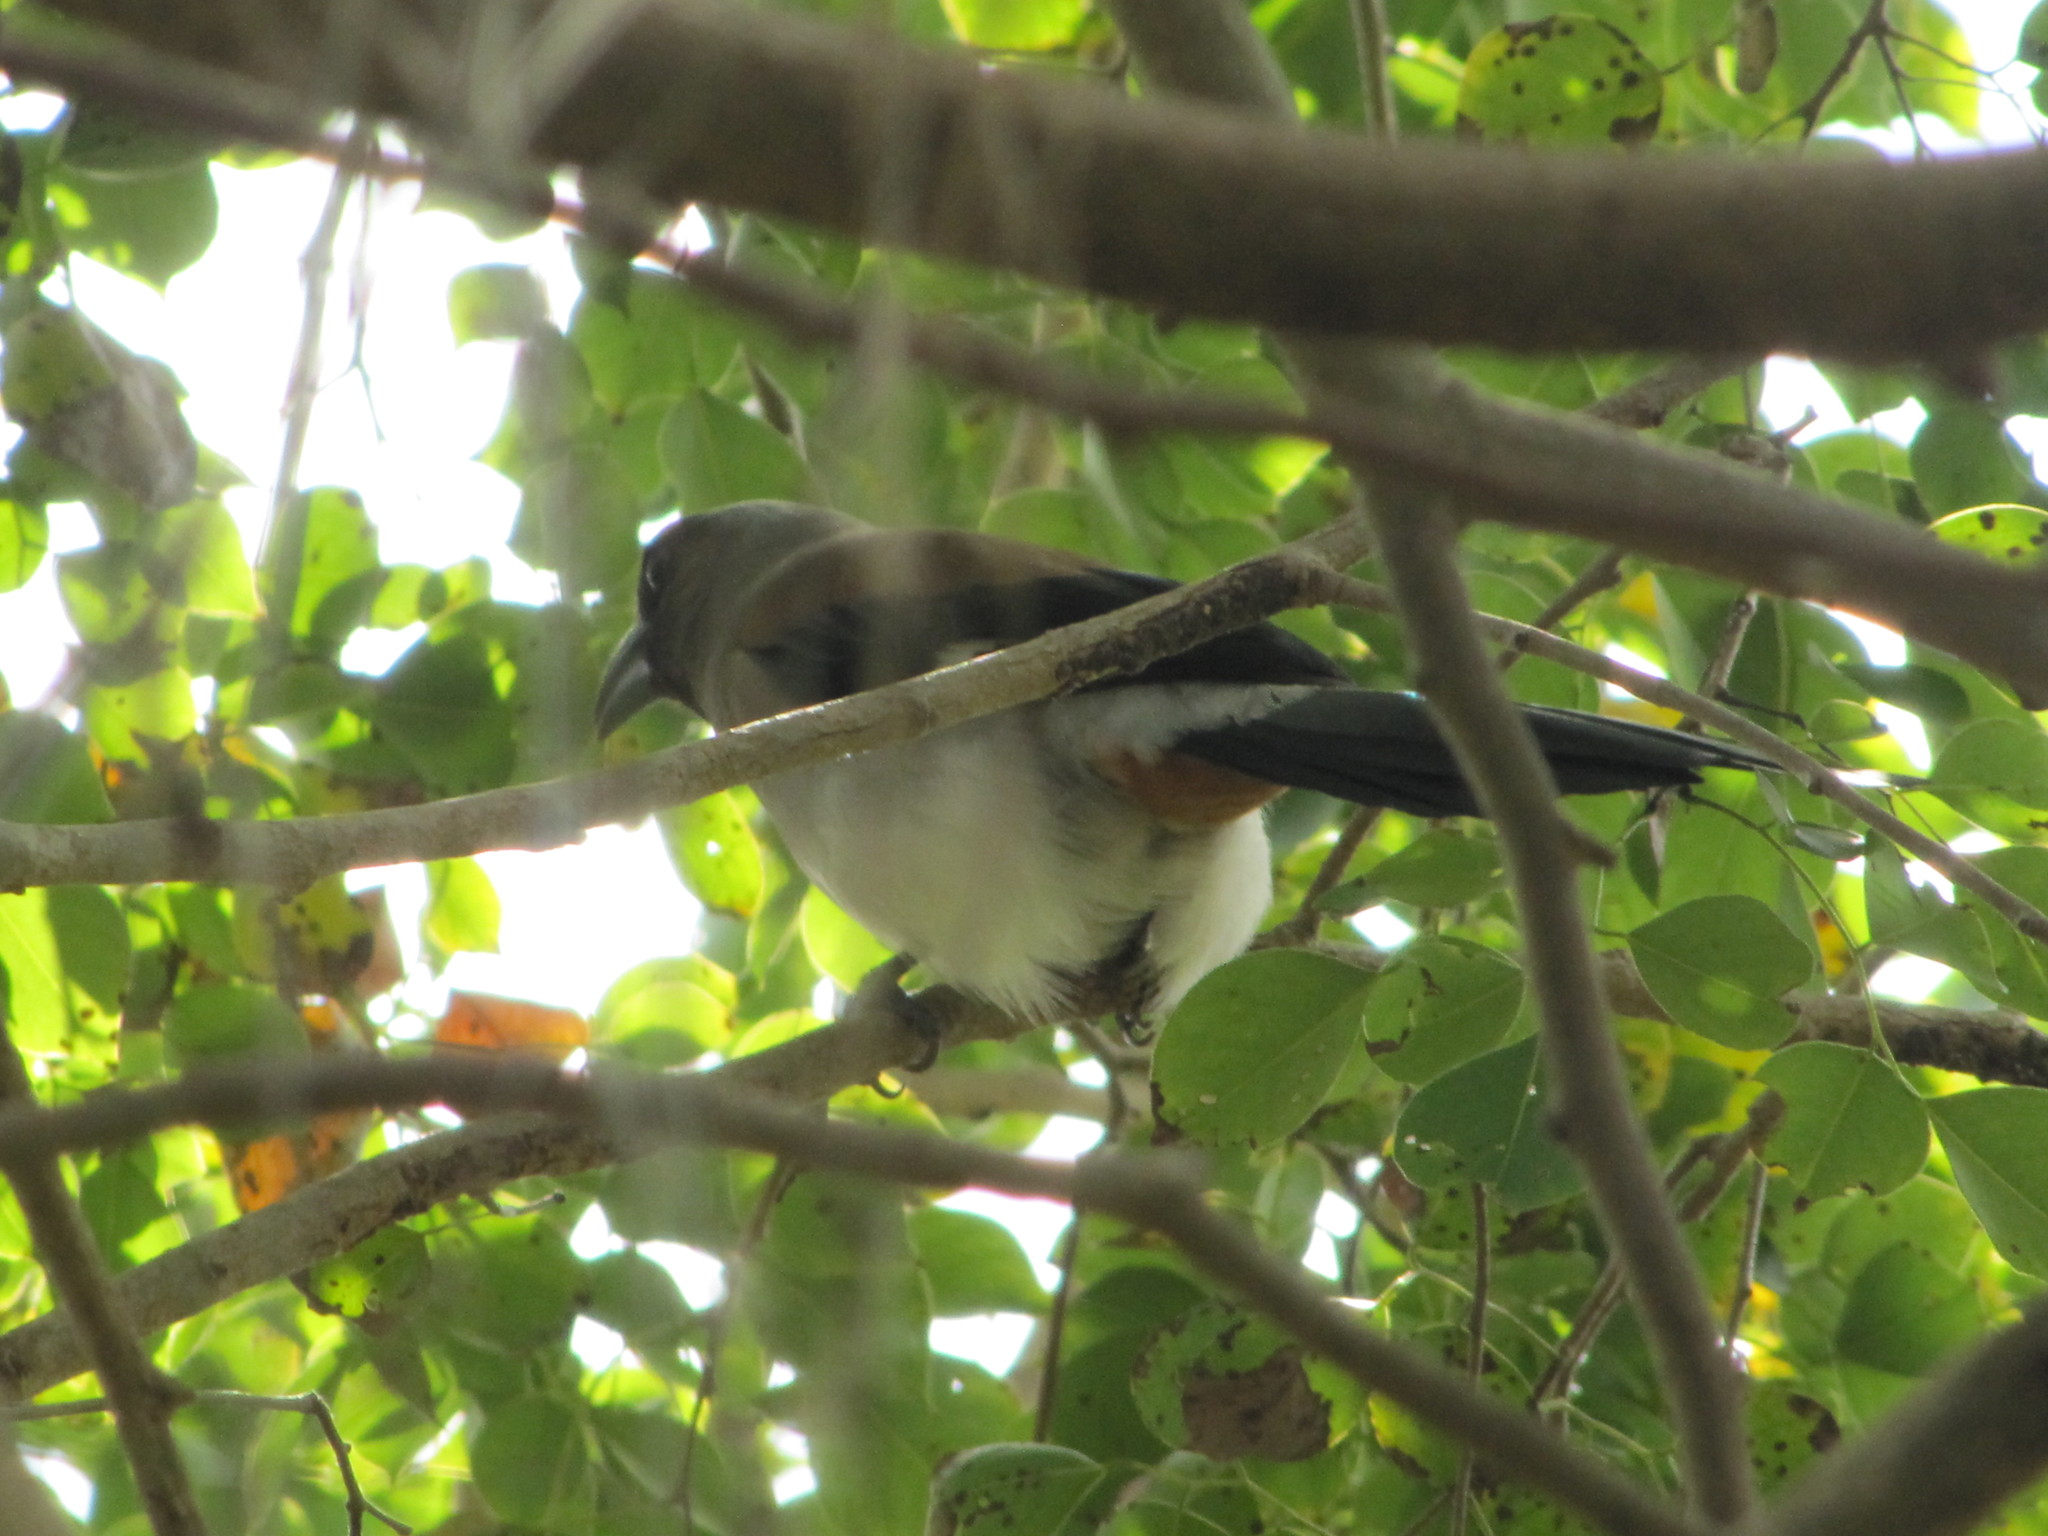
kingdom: Animalia
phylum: Chordata
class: Aves
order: Passeriformes
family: Corvidae
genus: Dendrocitta
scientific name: Dendrocitta formosae
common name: Grey treepie
